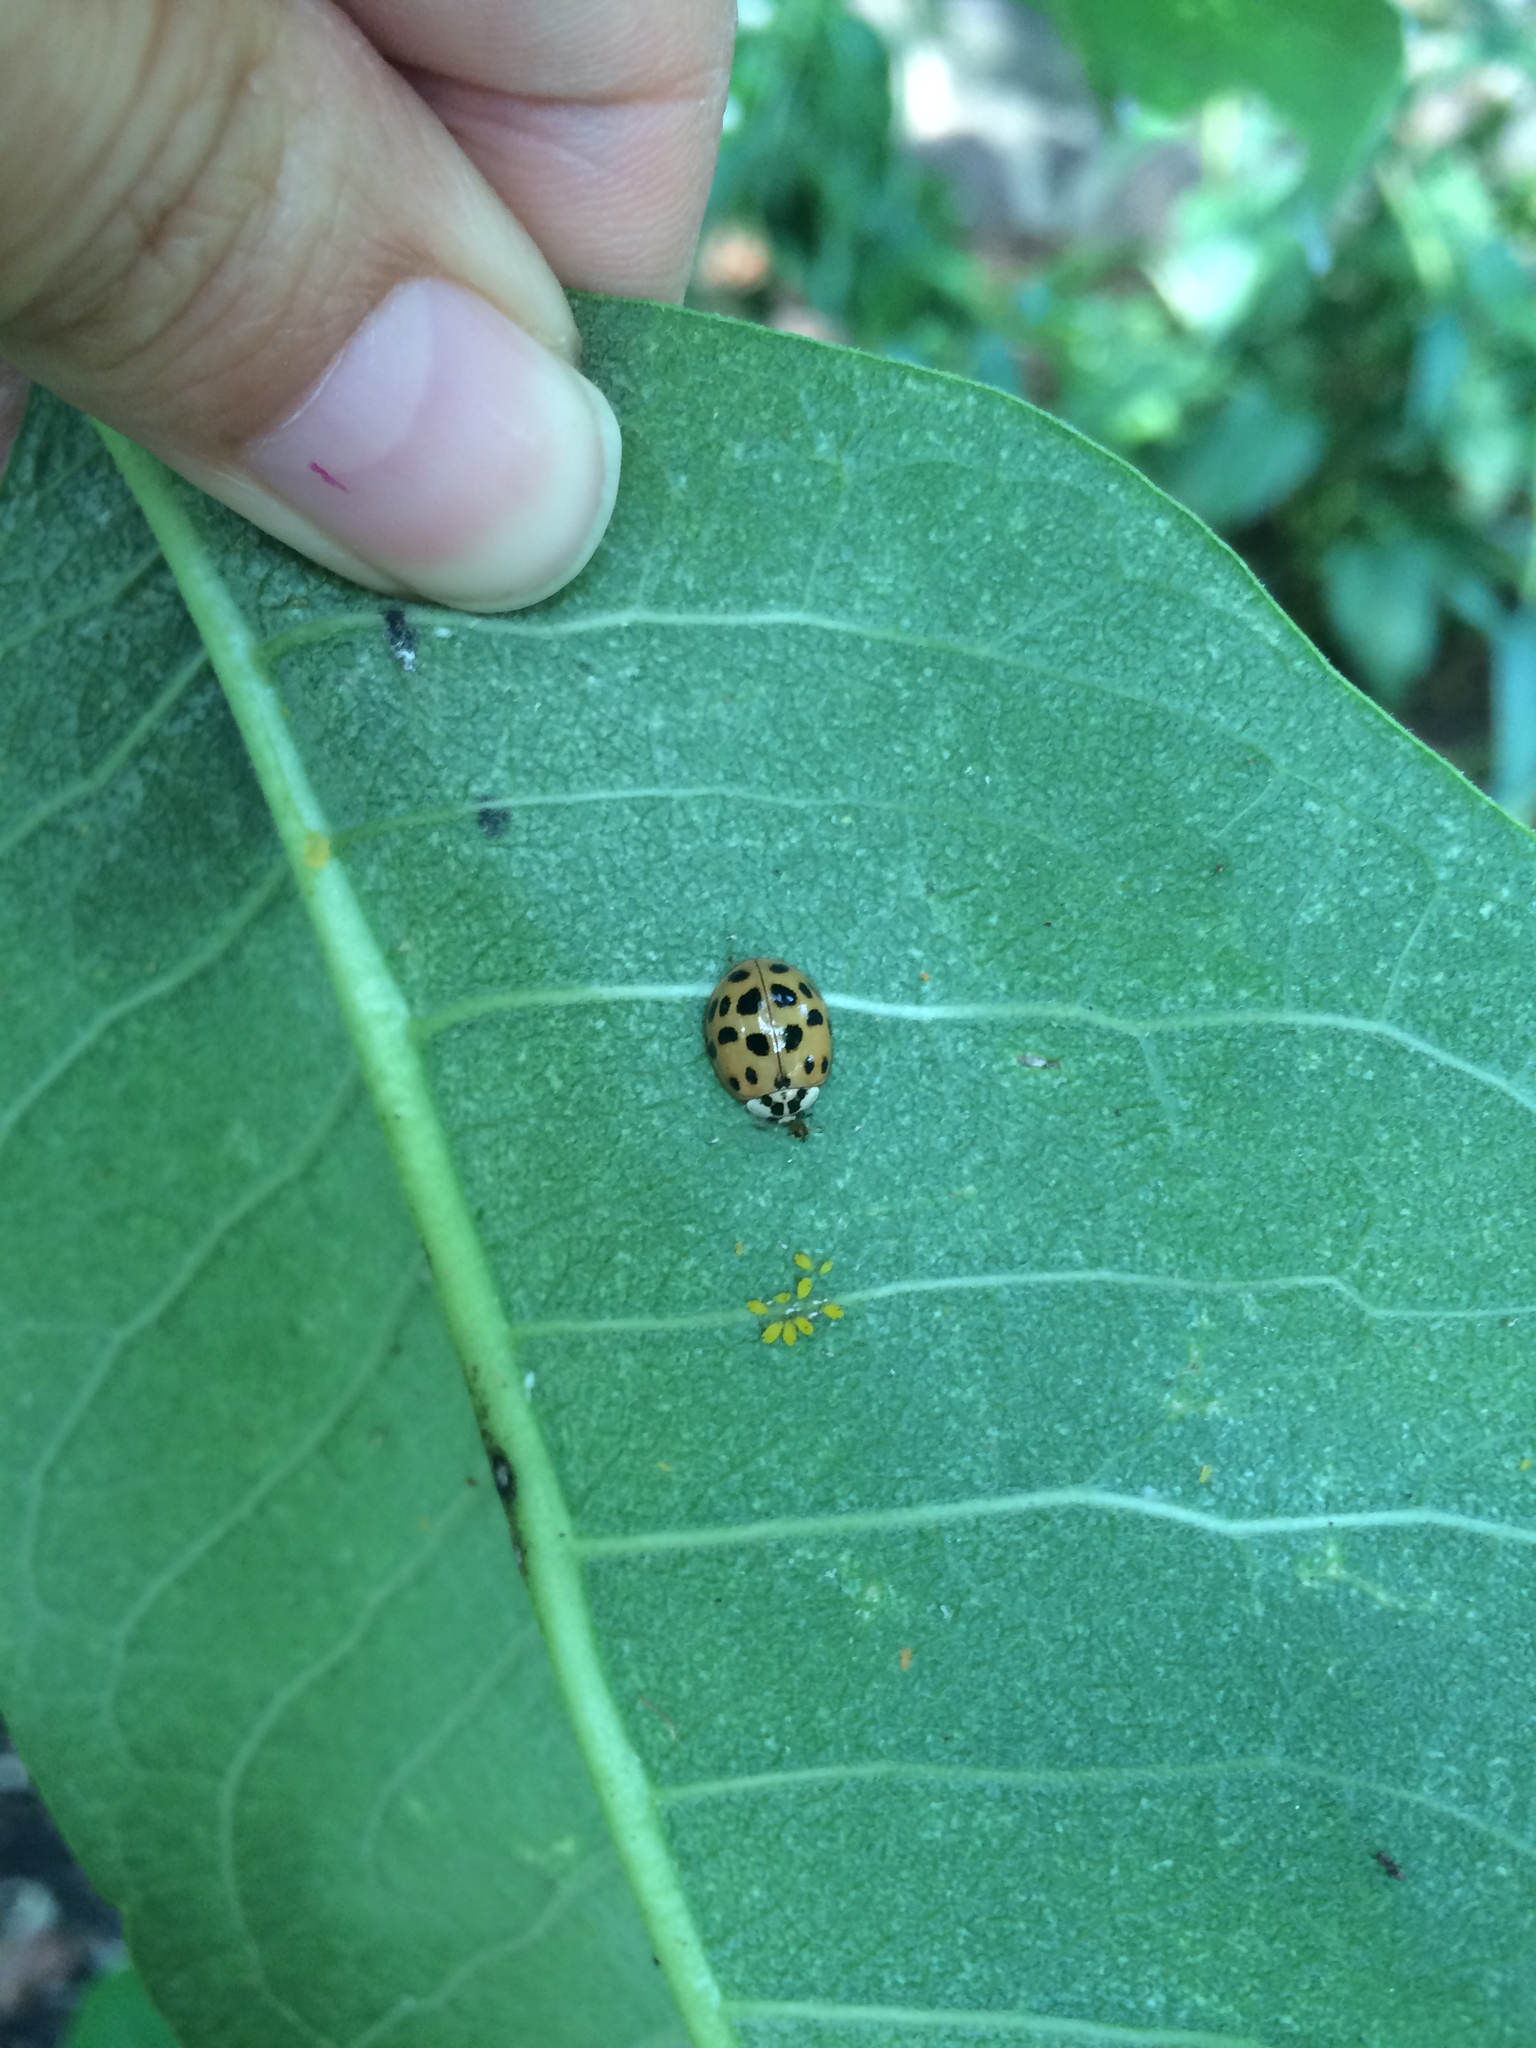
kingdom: Animalia
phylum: Arthropoda
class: Insecta
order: Coleoptera
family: Coccinellidae
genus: Harmonia
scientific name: Harmonia axyridis
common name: Harlequin ladybird
